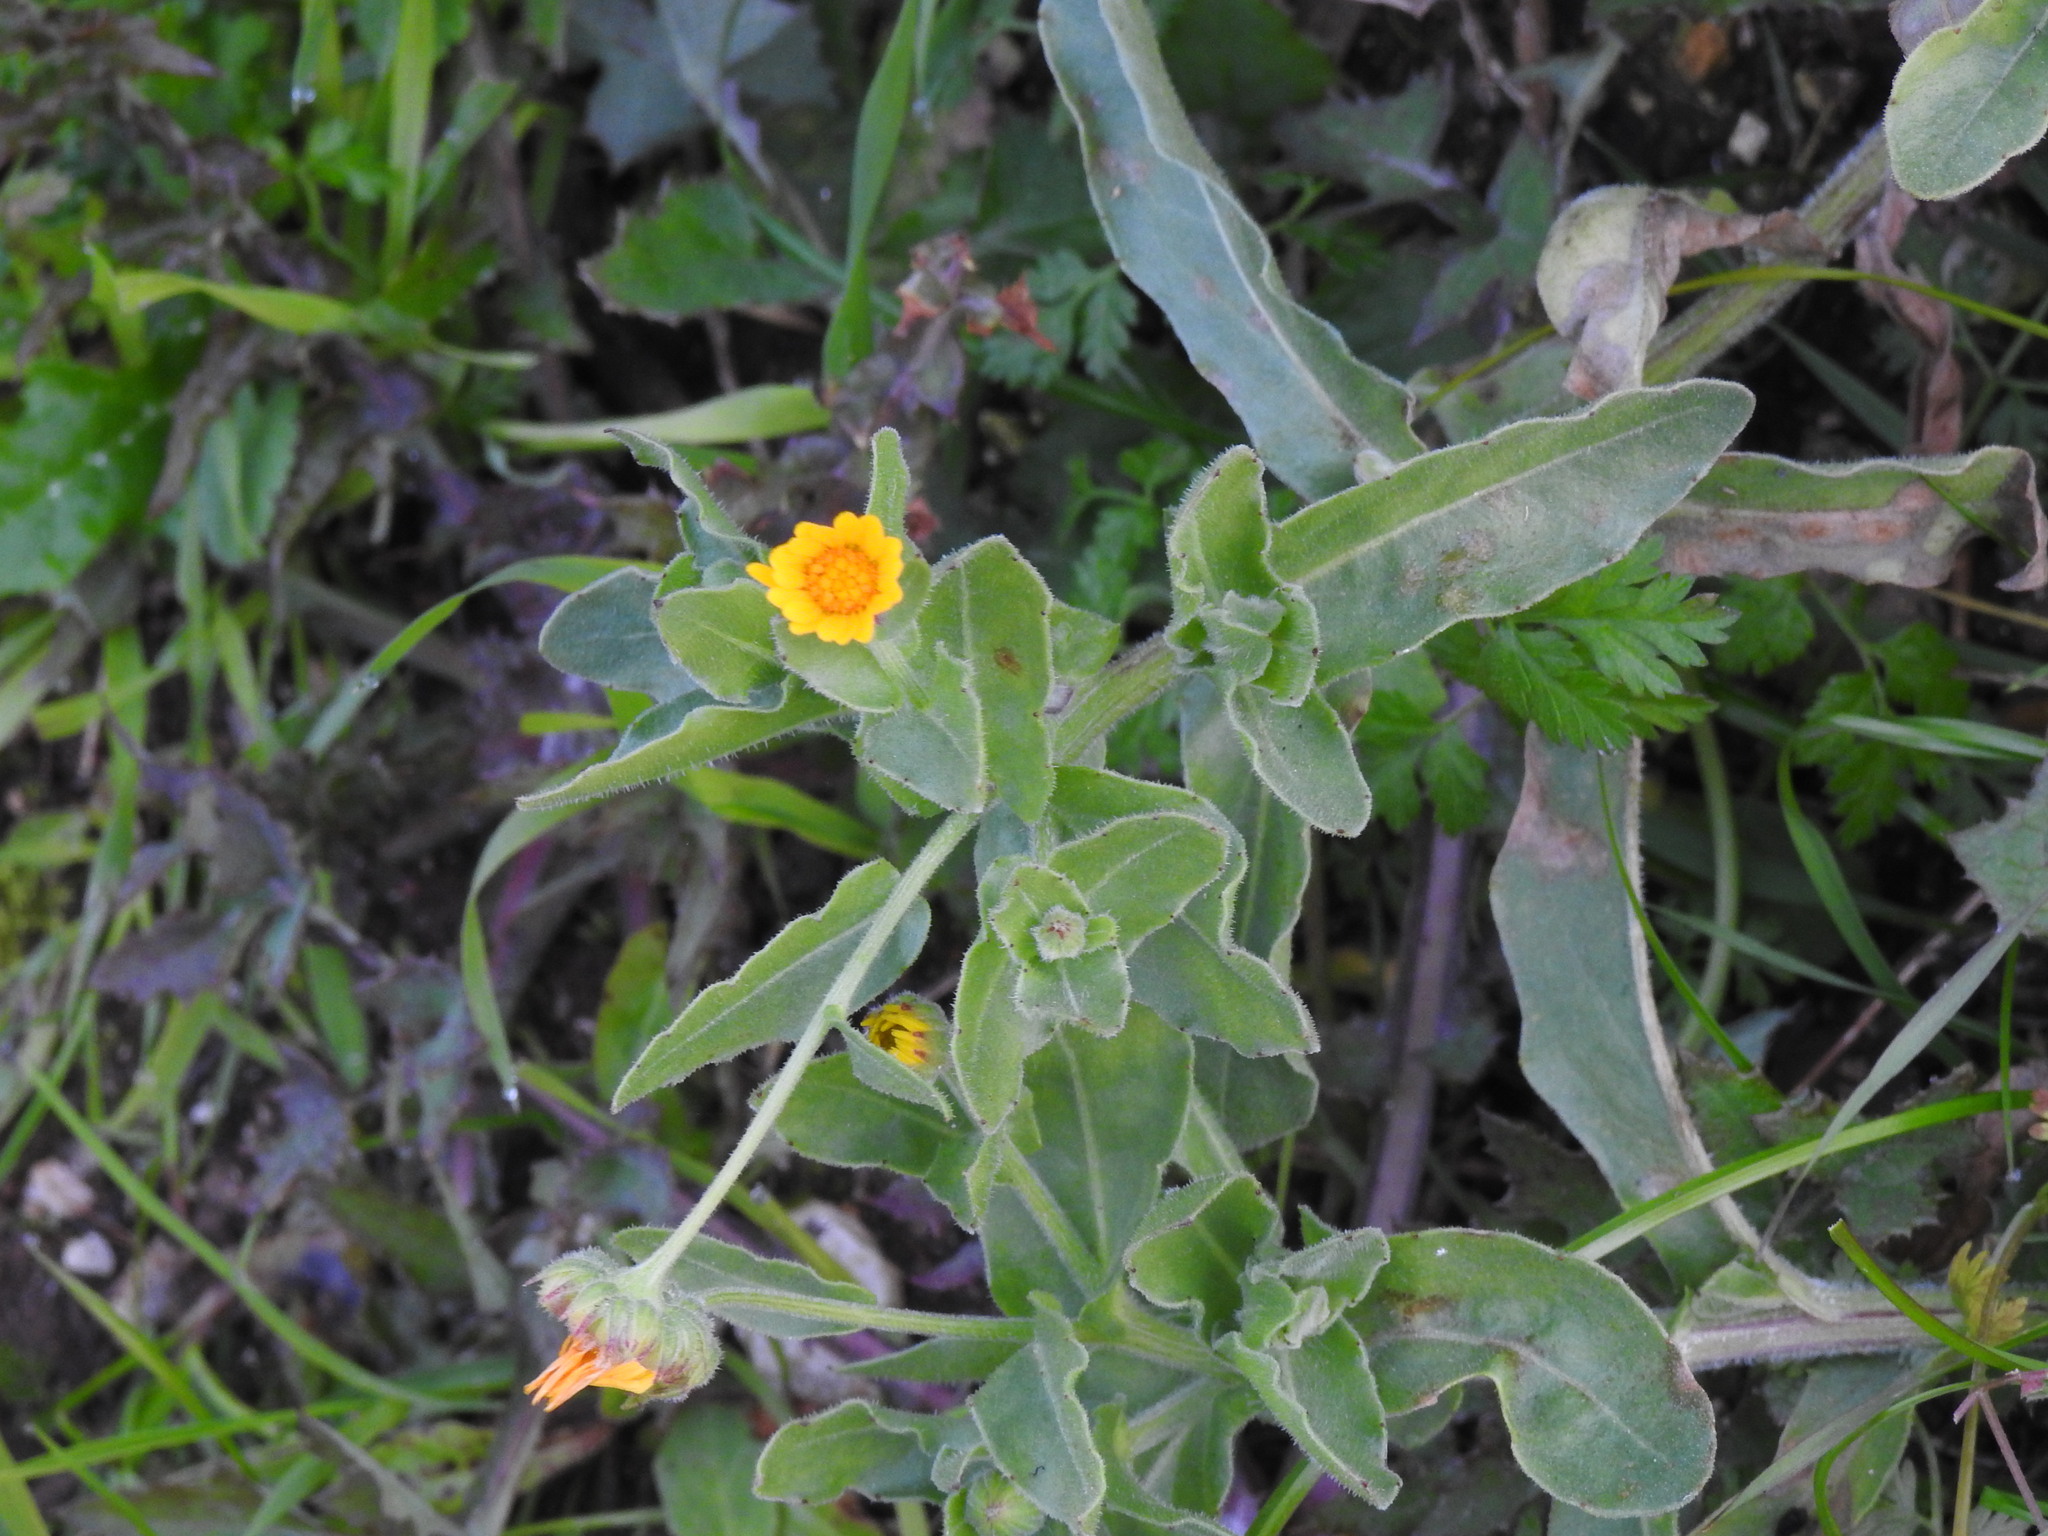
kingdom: Plantae
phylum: Tracheophyta
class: Magnoliopsida
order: Asterales
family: Asteraceae
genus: Calendula
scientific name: Calendula arvensis
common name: Field marigold
